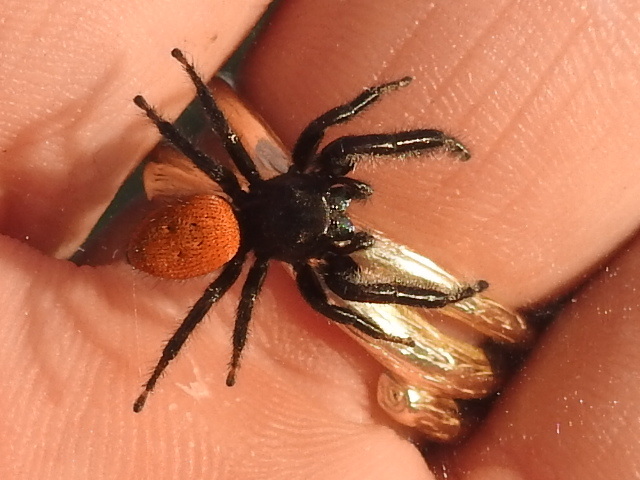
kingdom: Animalia
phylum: Arthropoda
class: Arachnida
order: Araneae
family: Salticidae
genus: Phidippus
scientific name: Phidippus texanus
